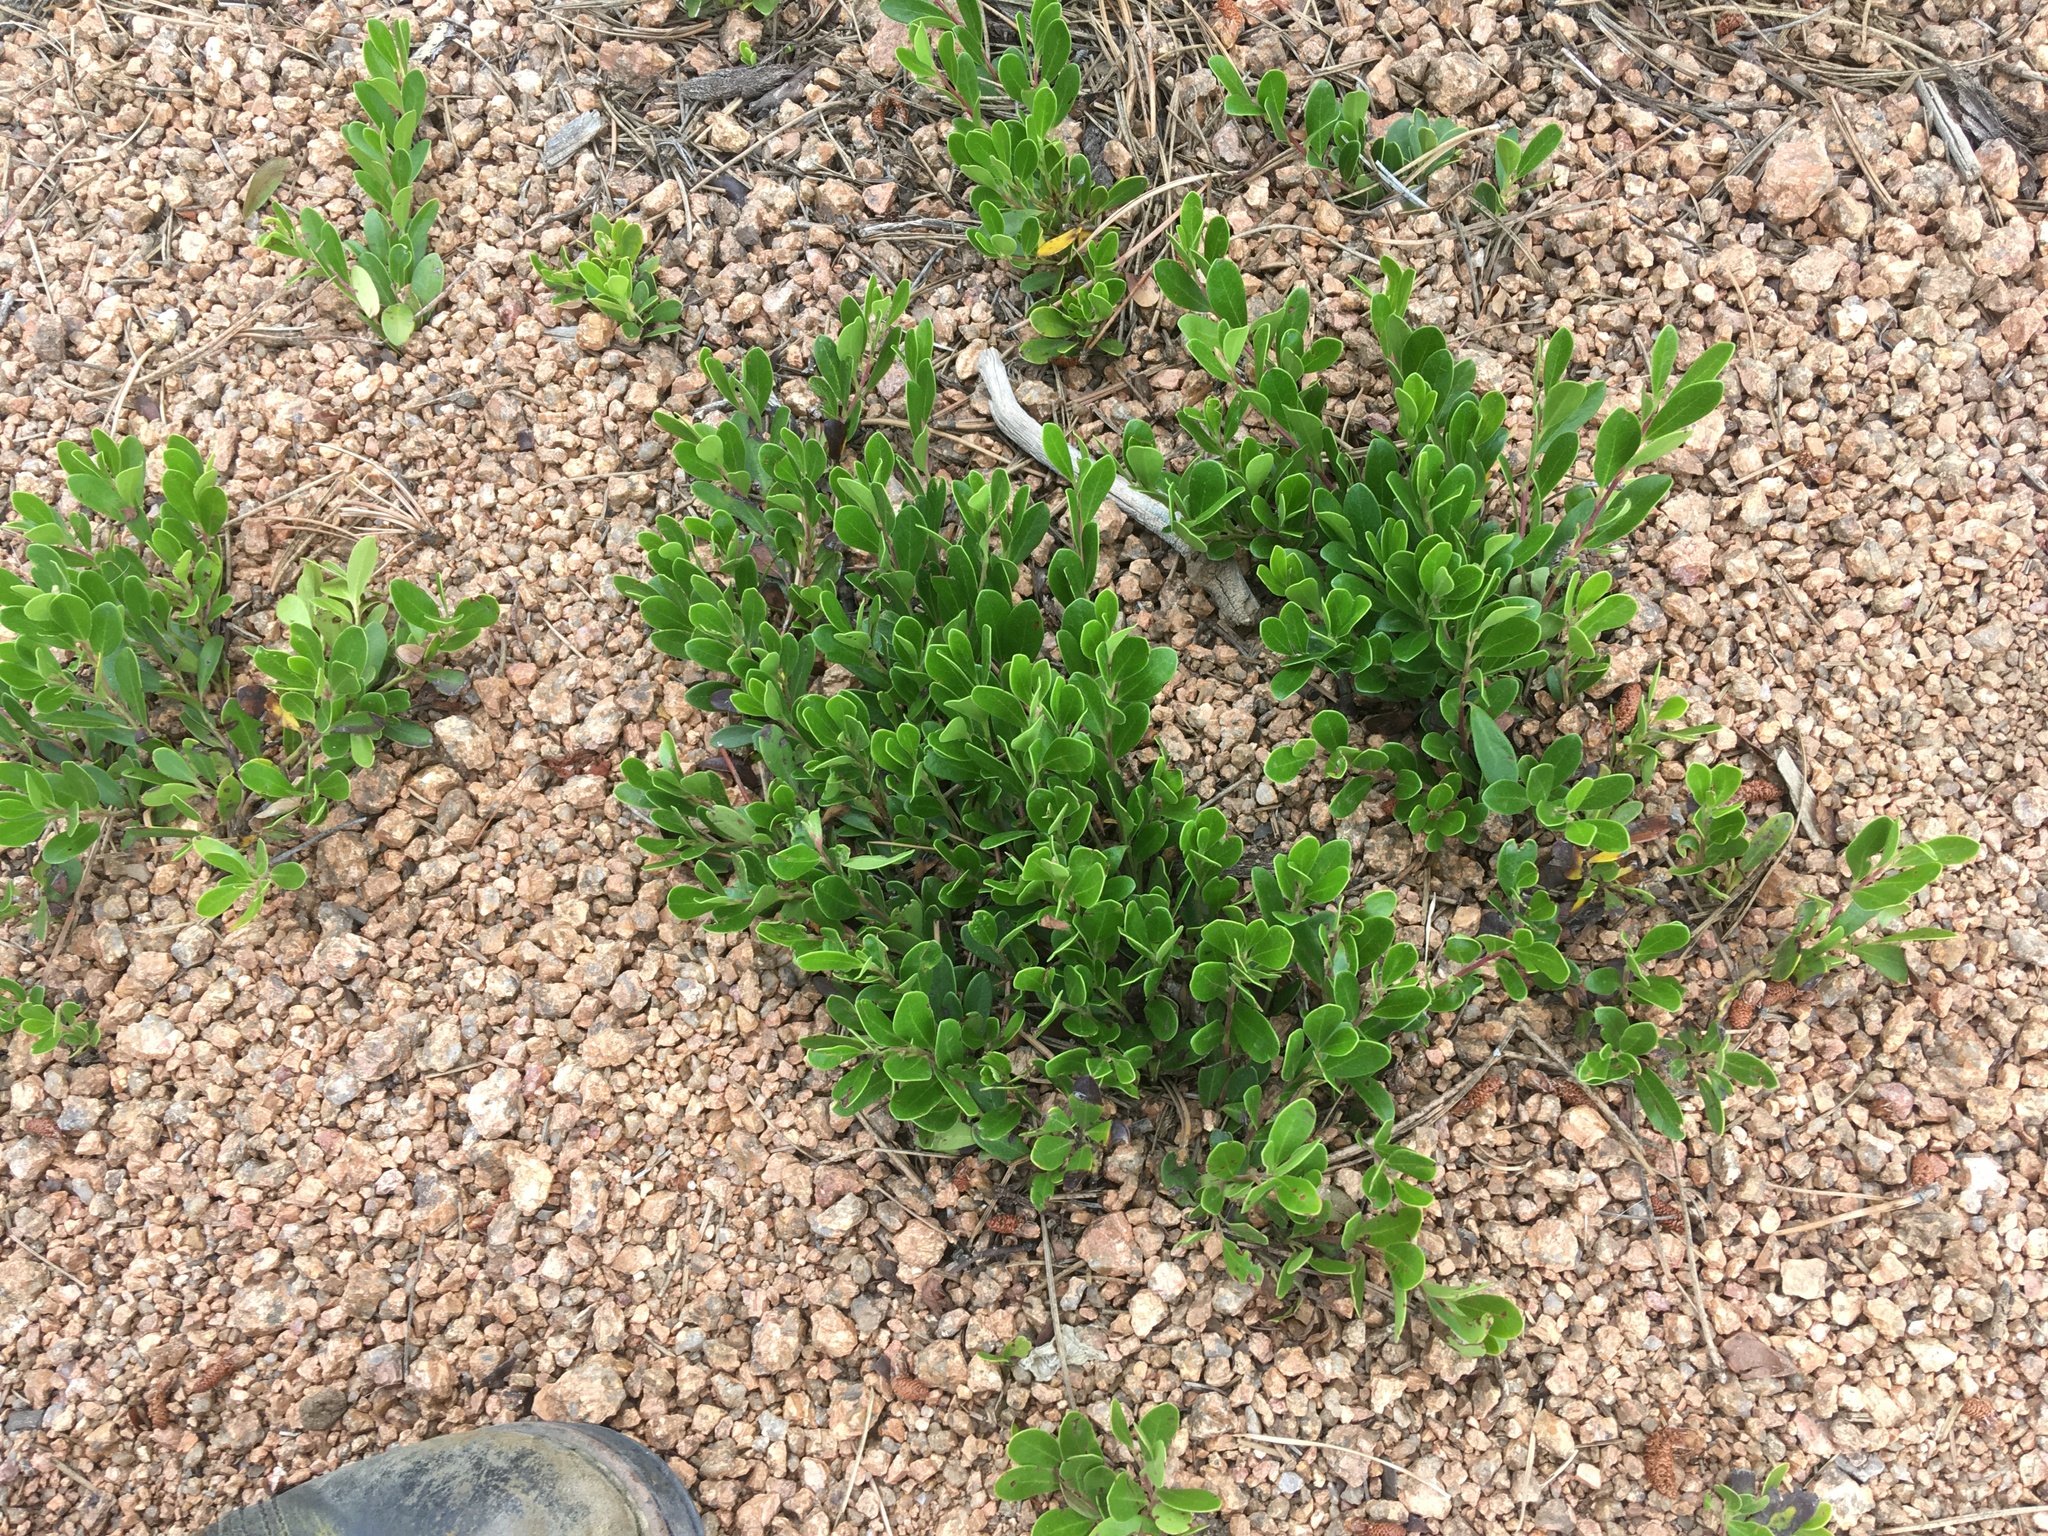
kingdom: Plantae
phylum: Tracheophyta
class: Magnoliopsida
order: Ericales
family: Ericaceae
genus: Arctostaphylos
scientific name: Arctostaphylos uva-ursi
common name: Bearberry
